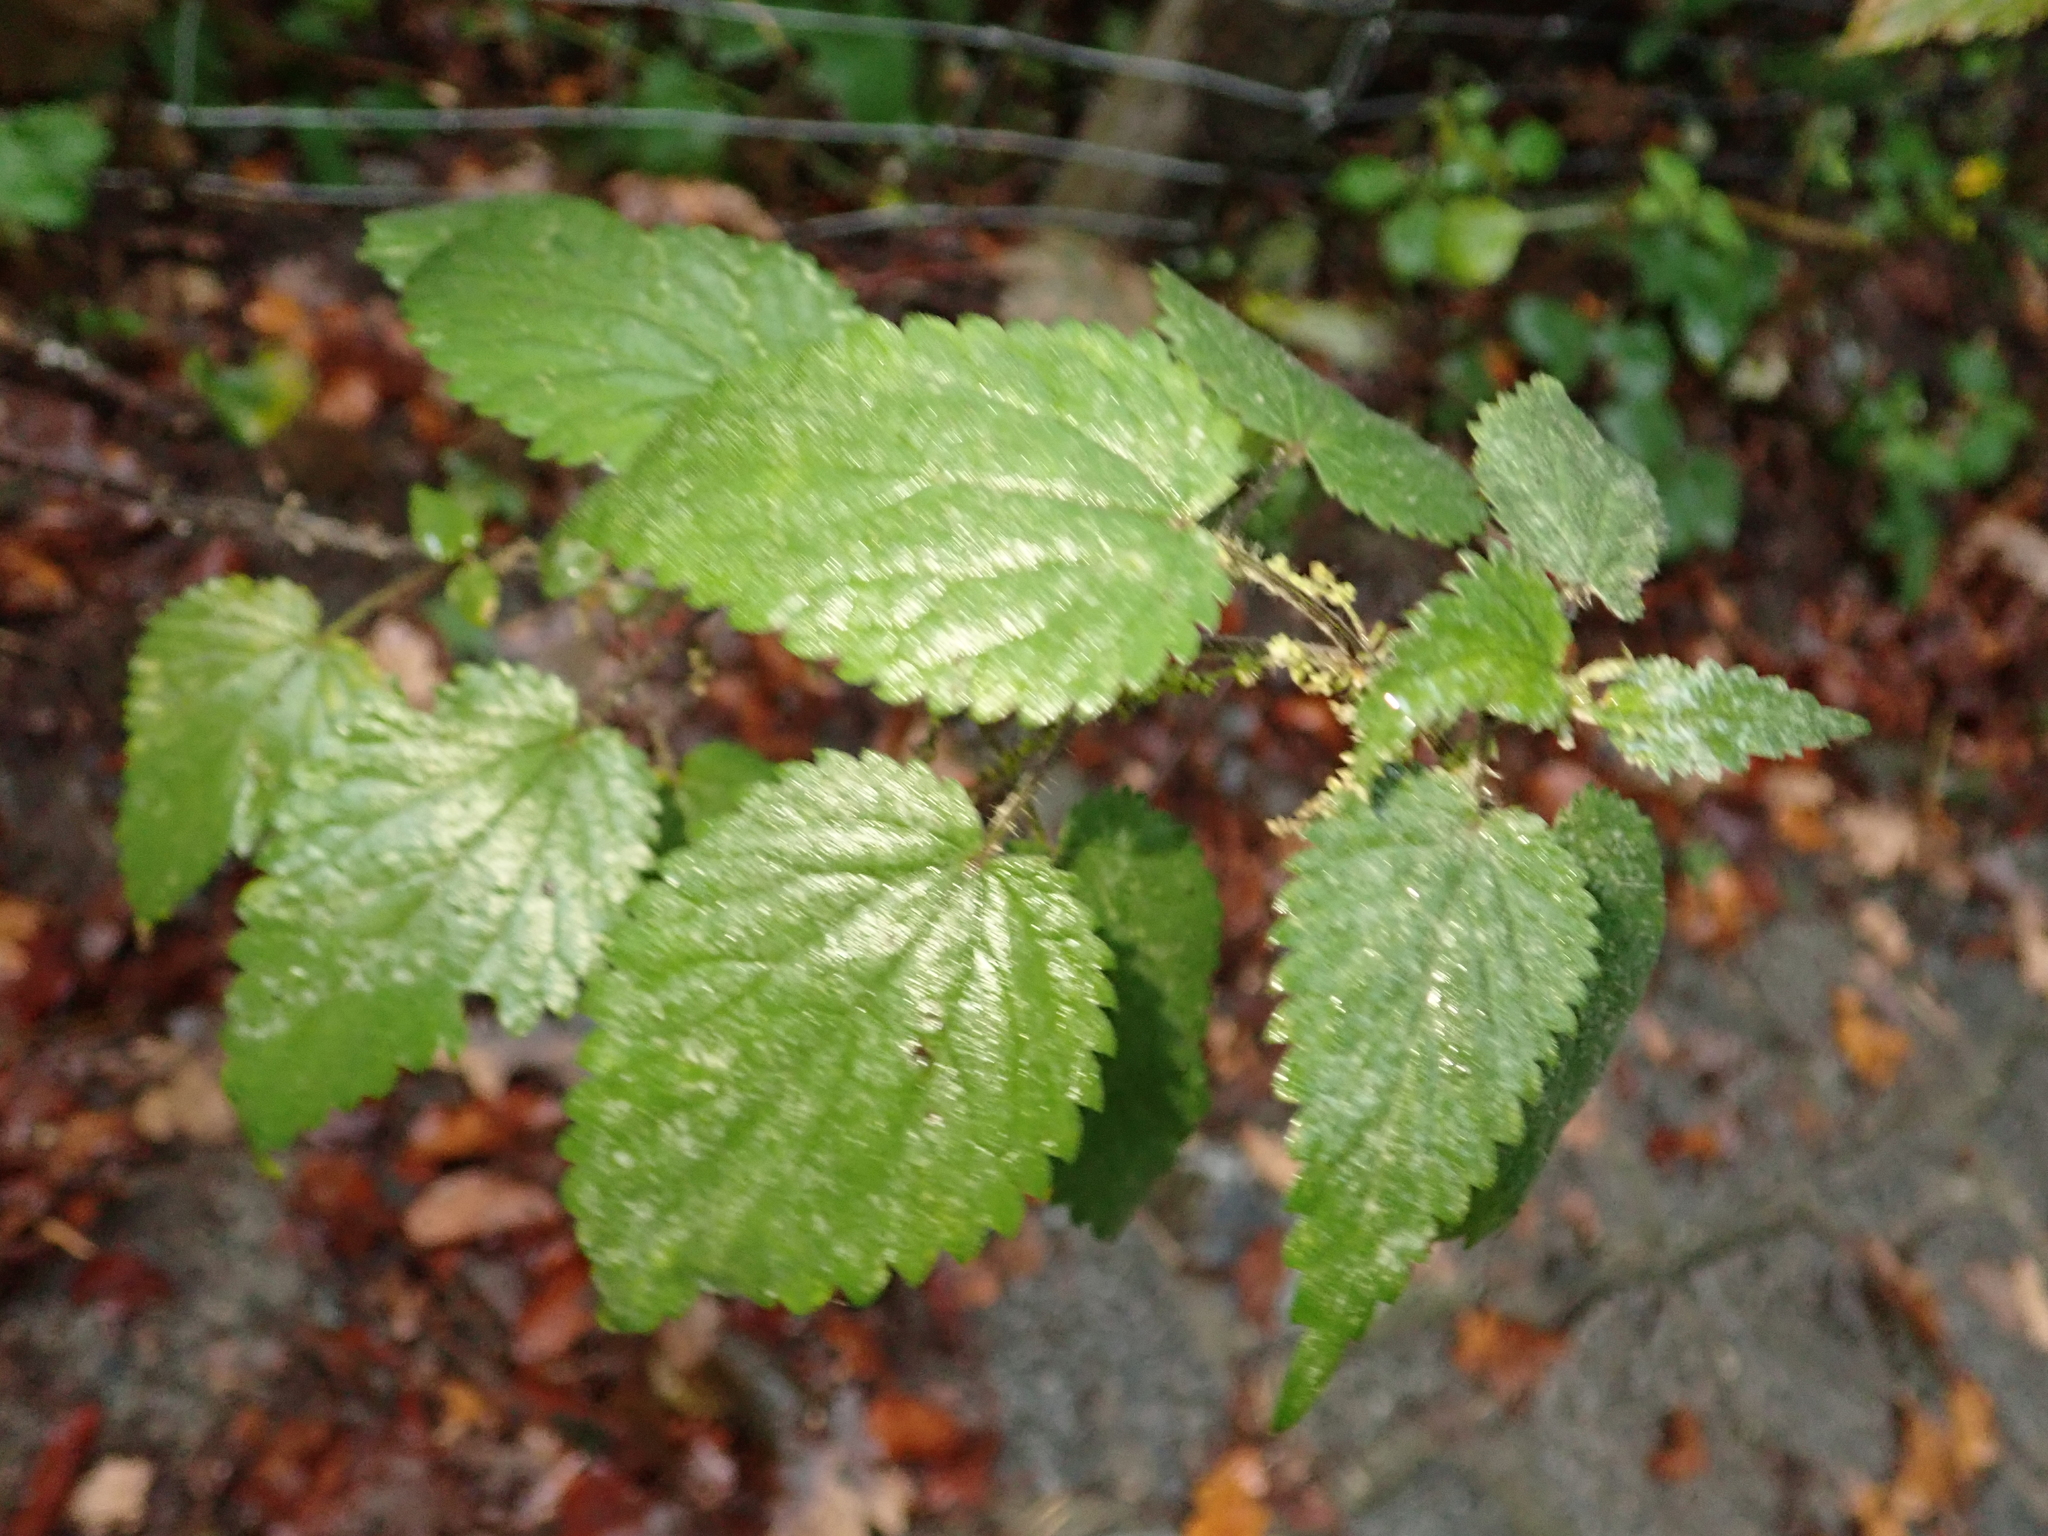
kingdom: Plantae
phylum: Tracheophyta
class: Magnoliopsida
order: Rosales
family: Urticaceae
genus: Urtica
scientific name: Urtica dioica
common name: Common nettle
